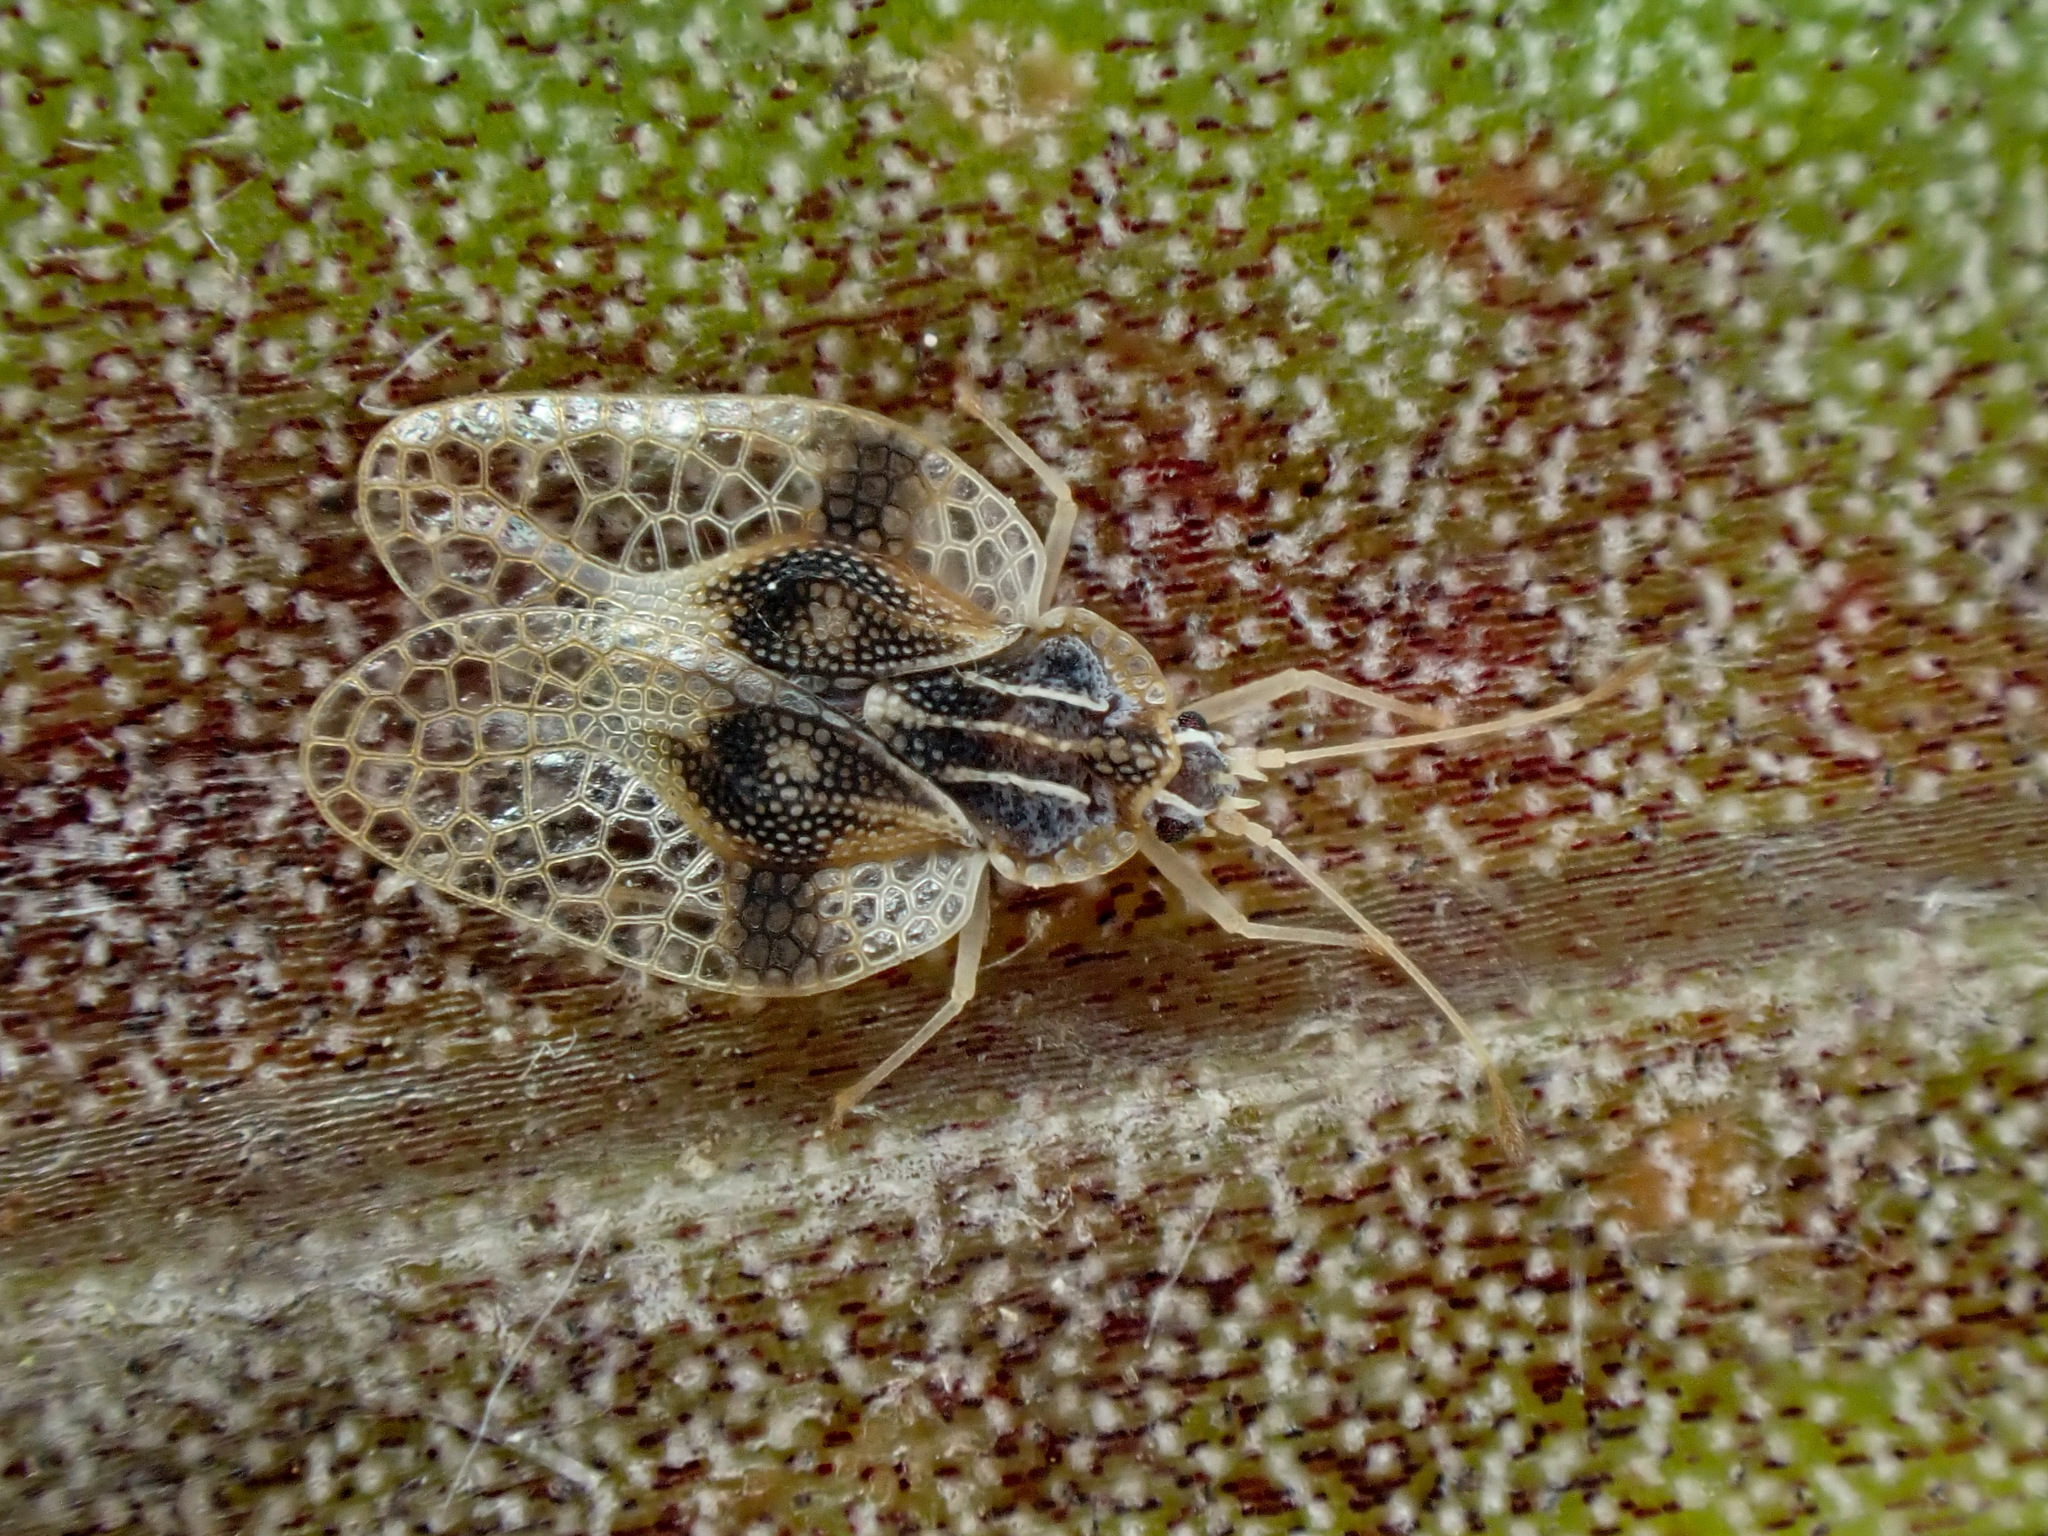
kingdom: Animalia
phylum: Arthropoda
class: Insecta
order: Hemiptera
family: Tingidae
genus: Tanybyrsa
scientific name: Tanybyrsa cumberi
